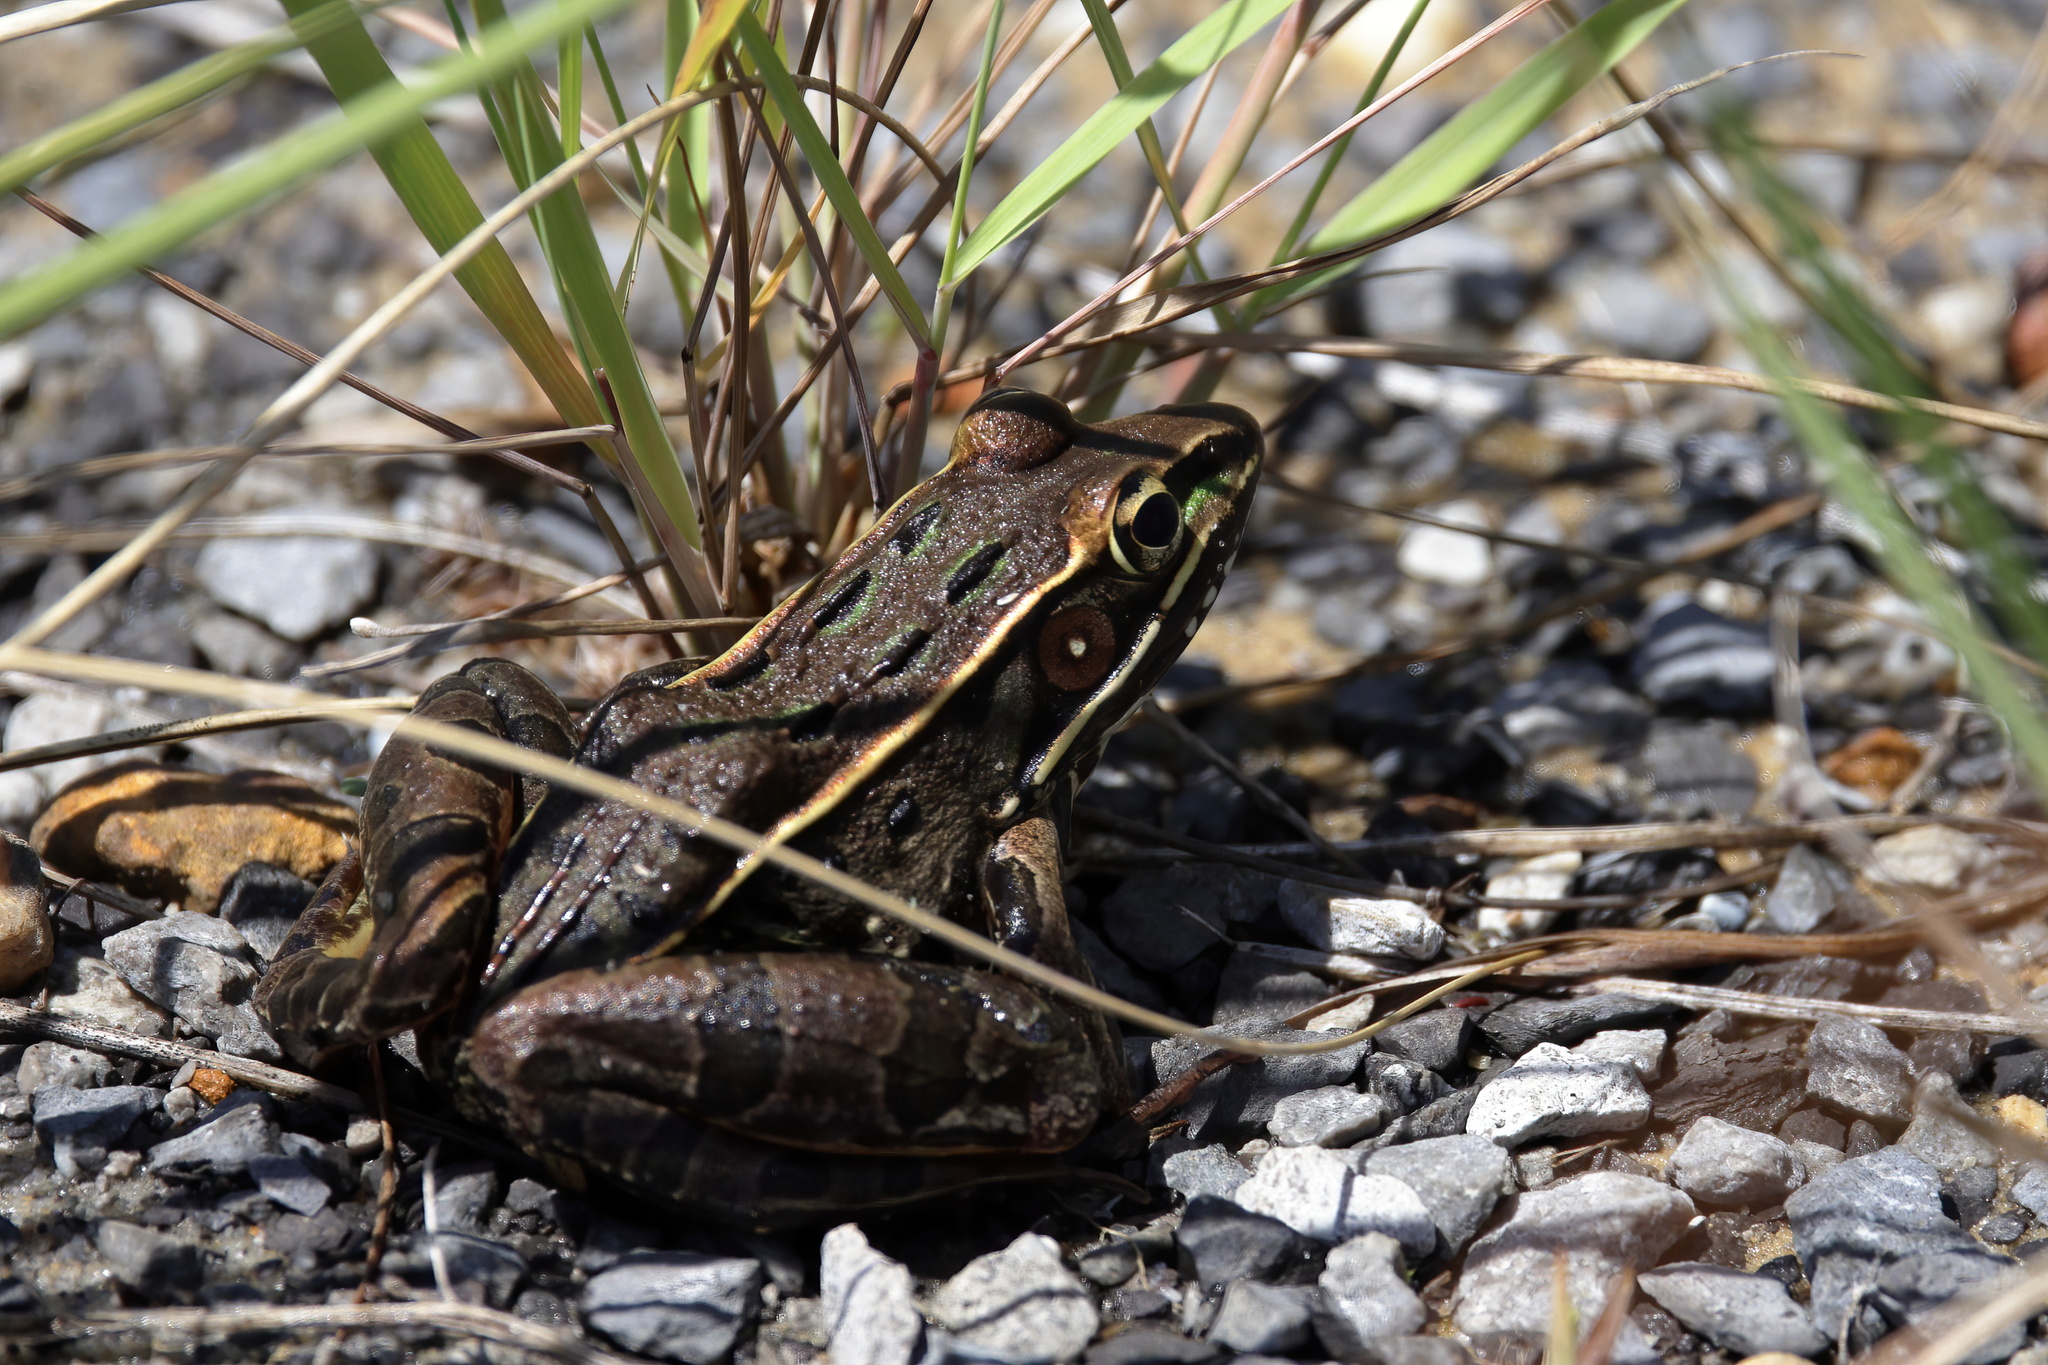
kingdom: Animalia
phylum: Chordata
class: Amphibia
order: Anura
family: Ranidae
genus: Lithobates
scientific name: Lithobates sphenocephalus
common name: Southern leopard frog
